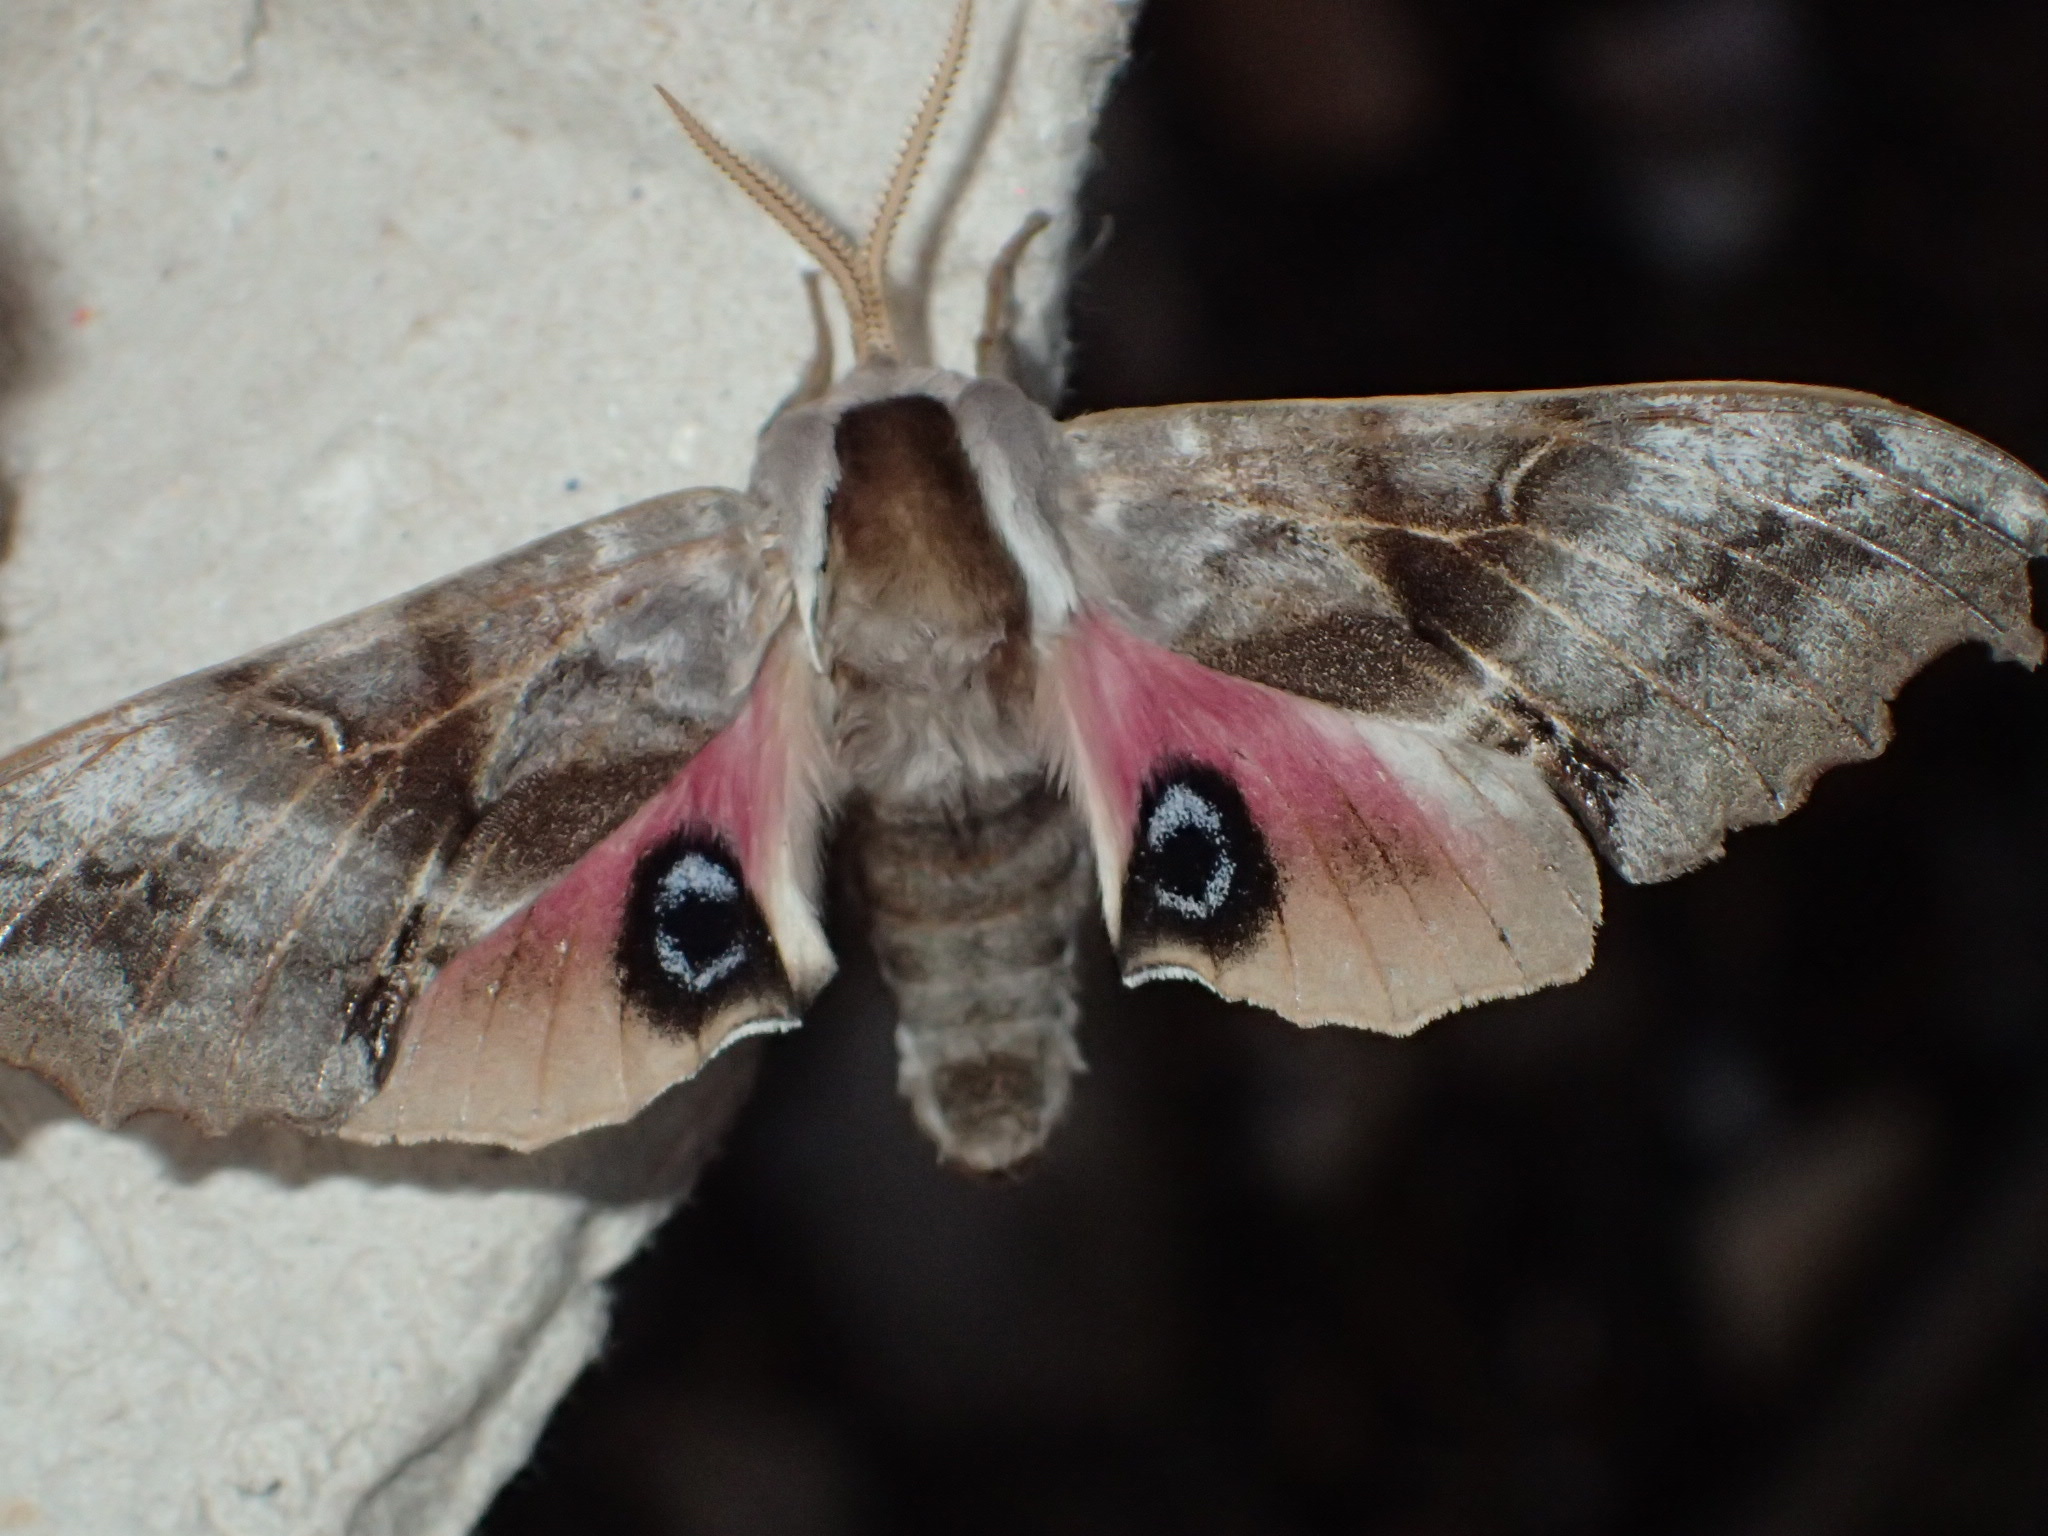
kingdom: Animalia
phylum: Arthropoda
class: Insecta
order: Lepidoptera
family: Sphingidae
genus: Smerinthus
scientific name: Smerinthus cerisyi
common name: Cerisy's sphinx moth
